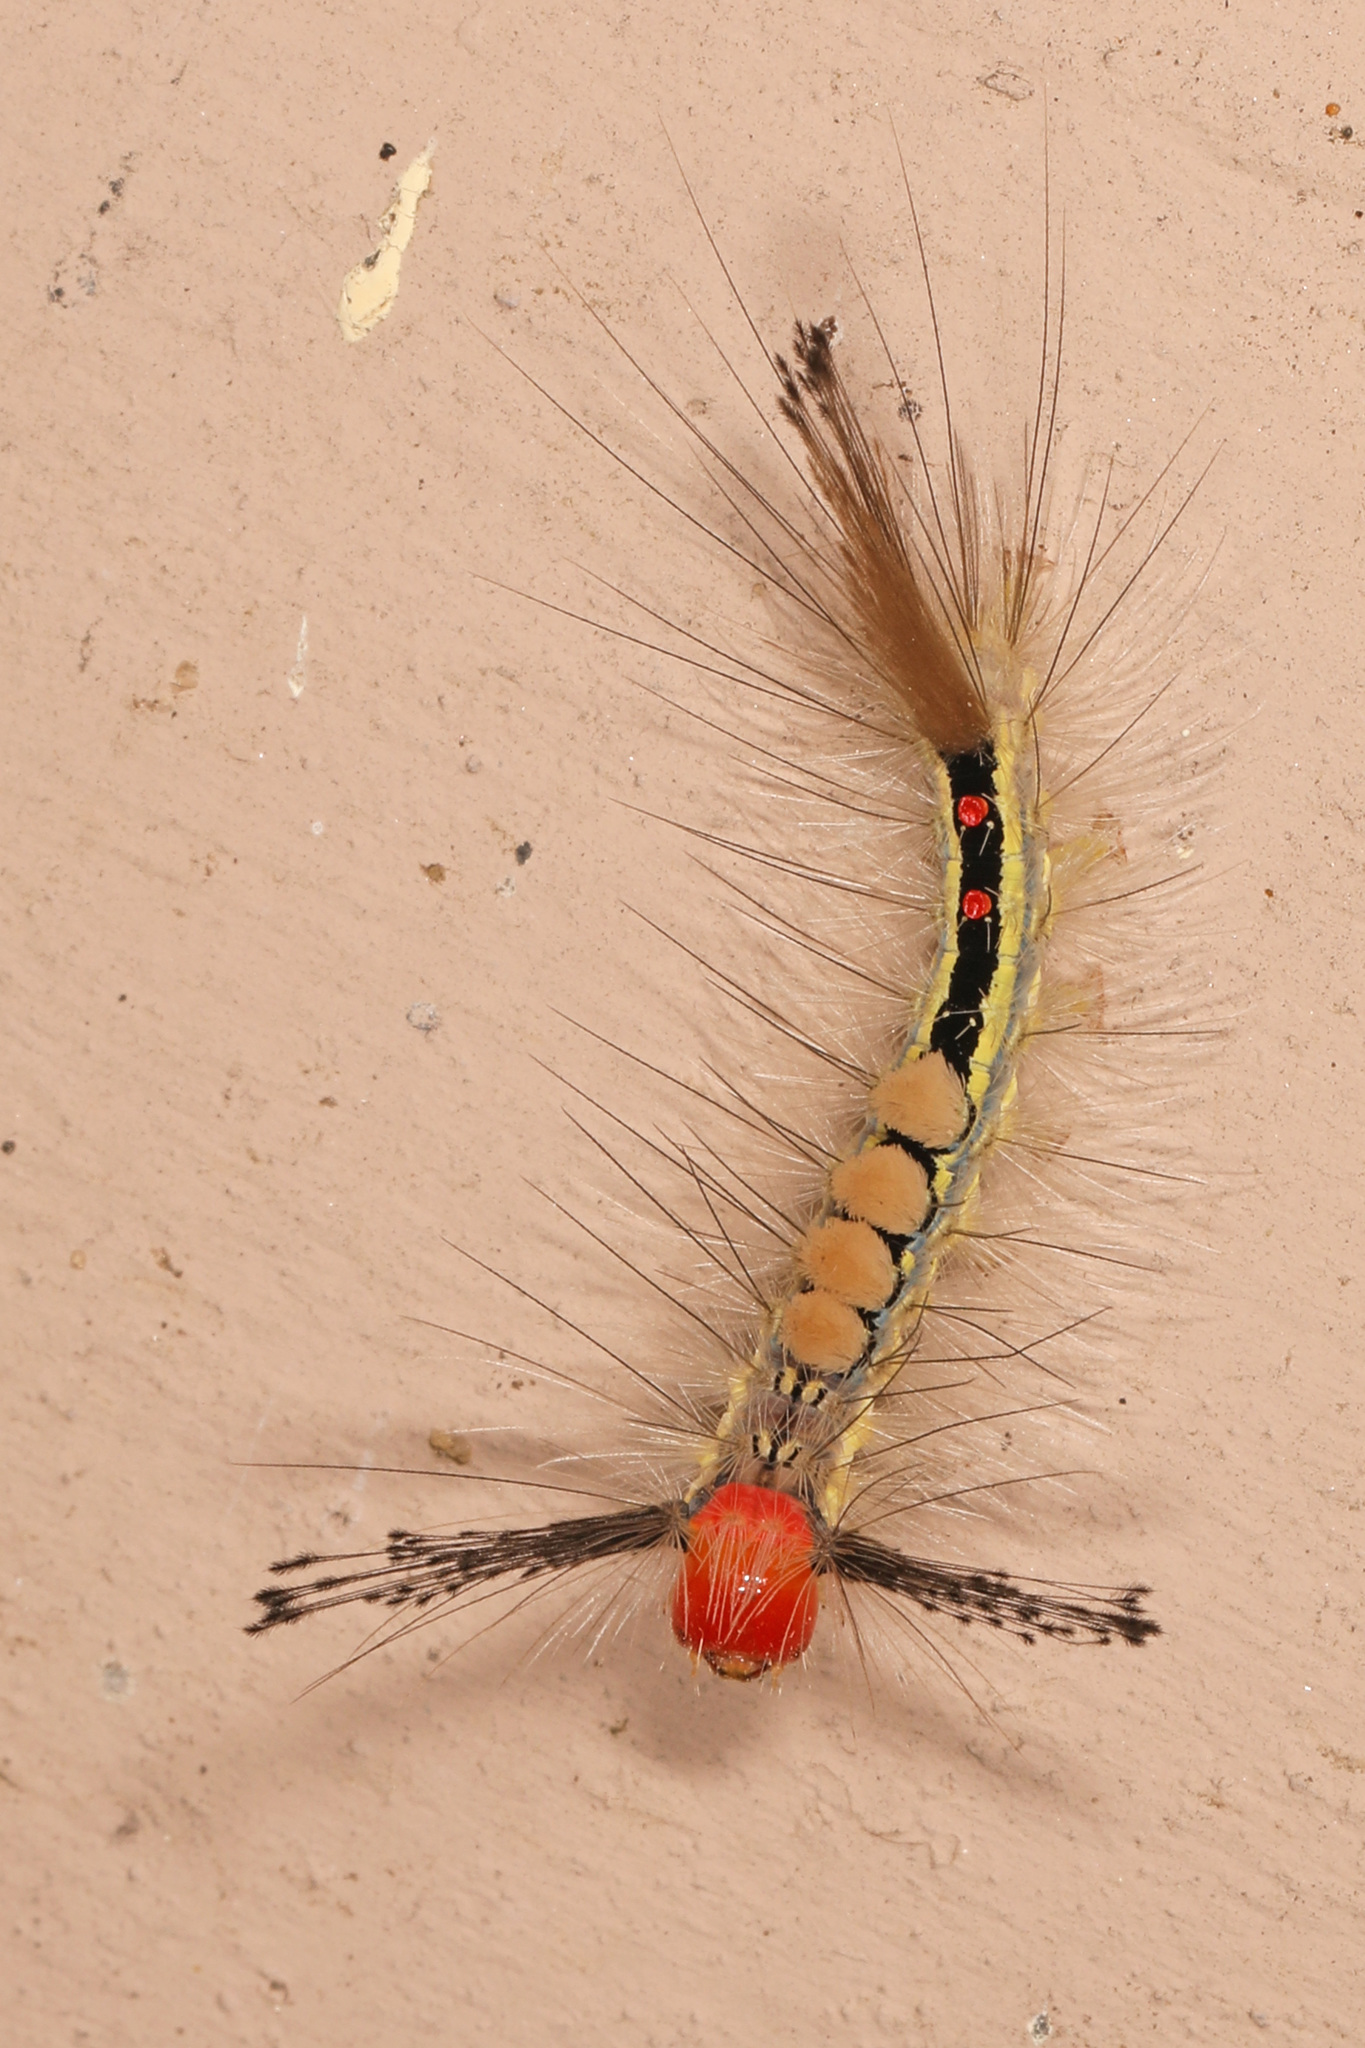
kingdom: Animalia
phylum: Arthropoda
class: Insecta
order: Lepidoptera
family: Erebidae
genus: Orgyia
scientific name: Orgyia leucostigma
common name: White-marked tussock moth
